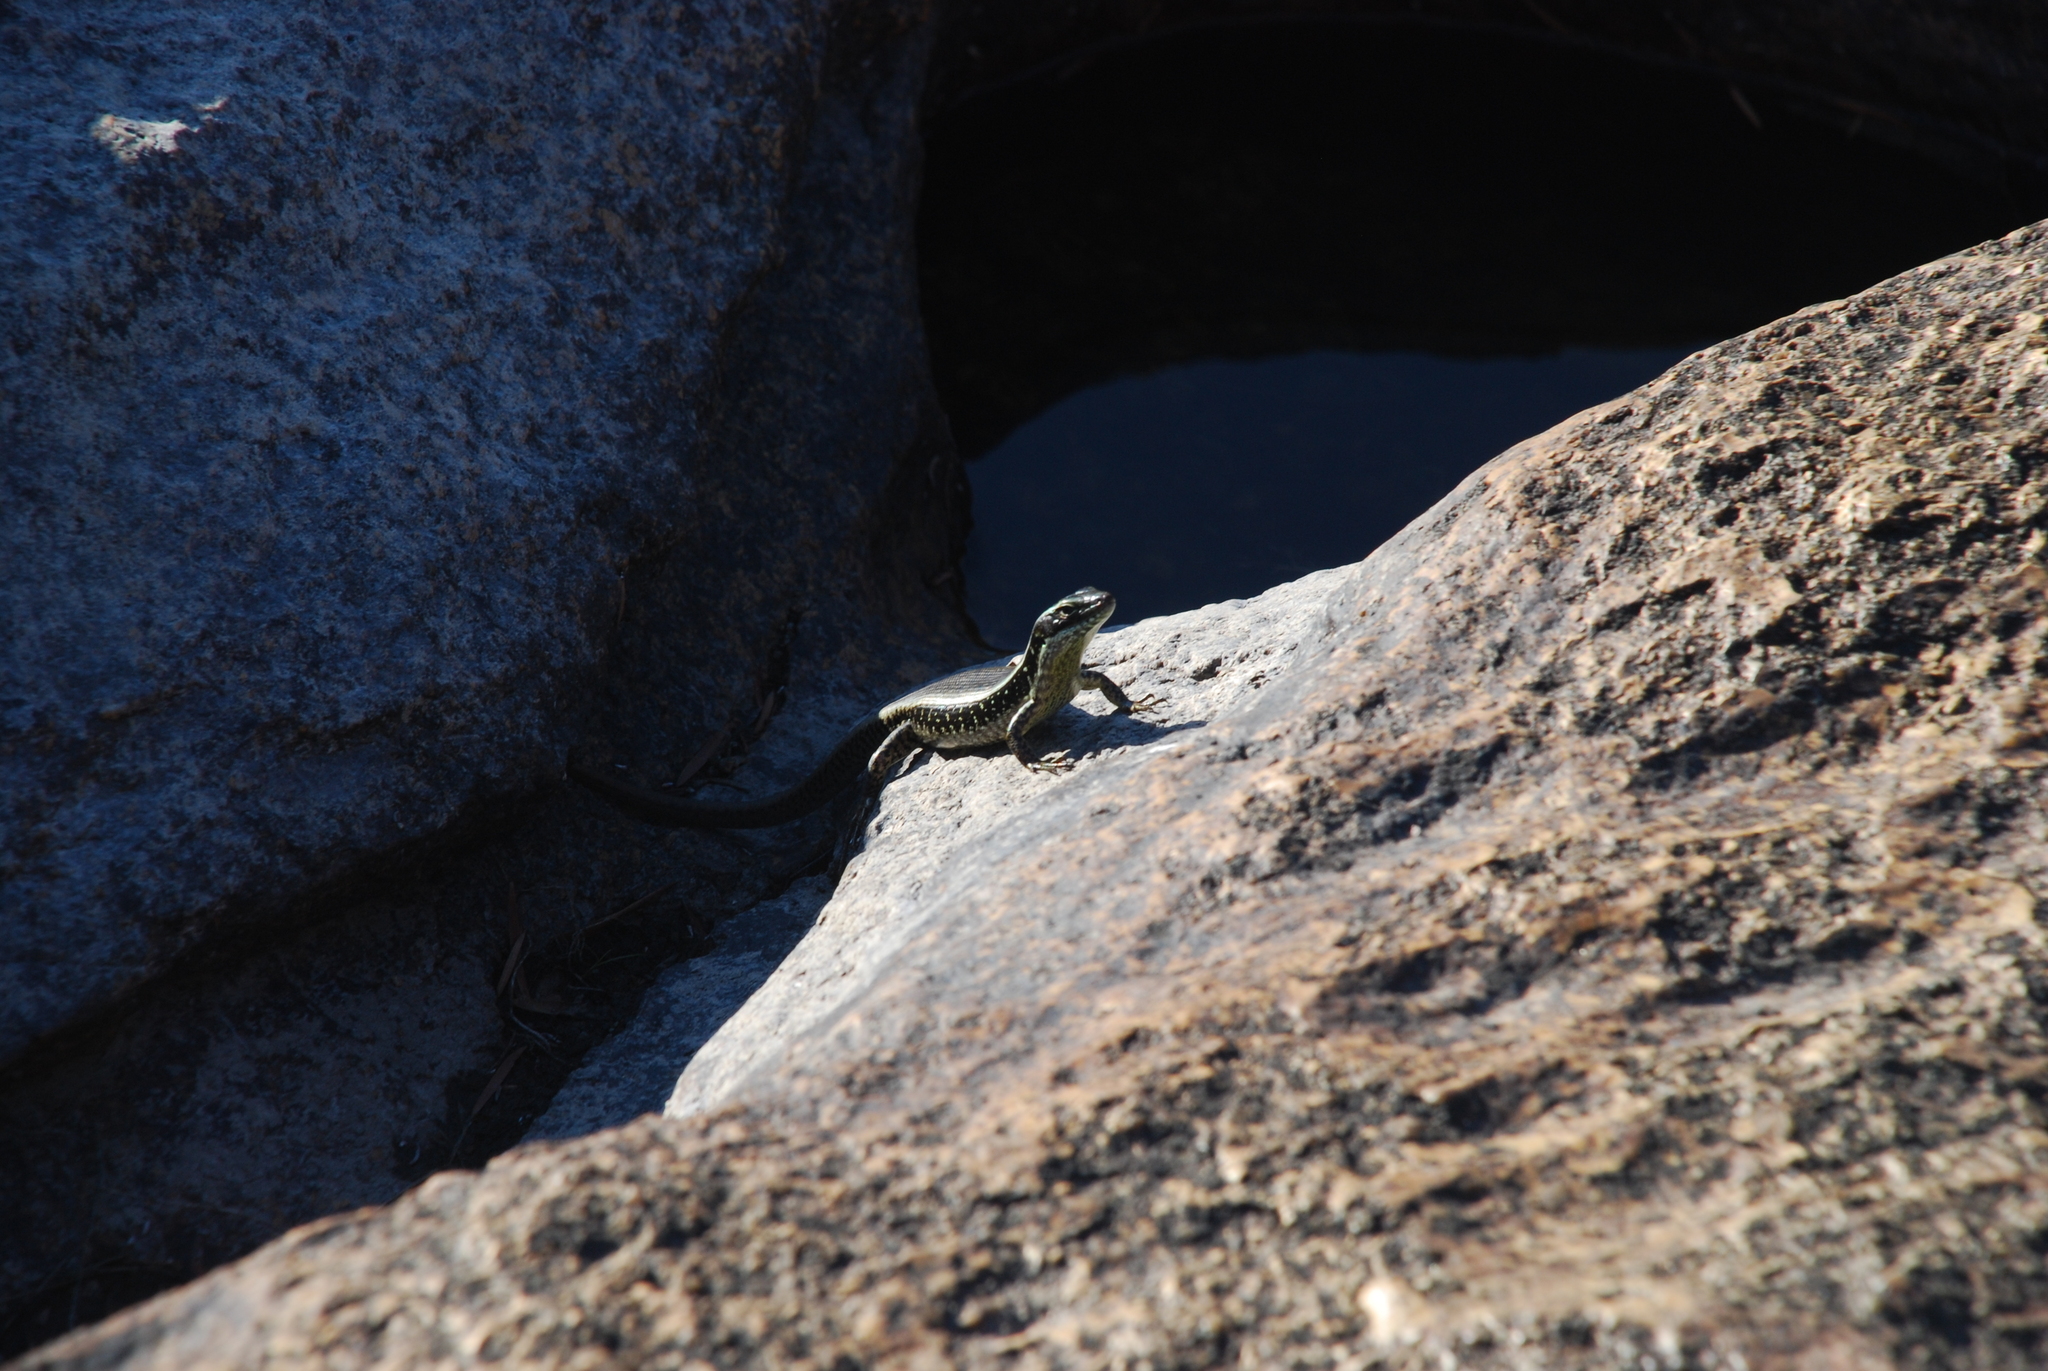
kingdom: Animalia
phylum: Chordata
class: Squamata
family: Scincidae
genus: Eulamprus
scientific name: Eulamprus quoyii
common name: Eastern water skink
